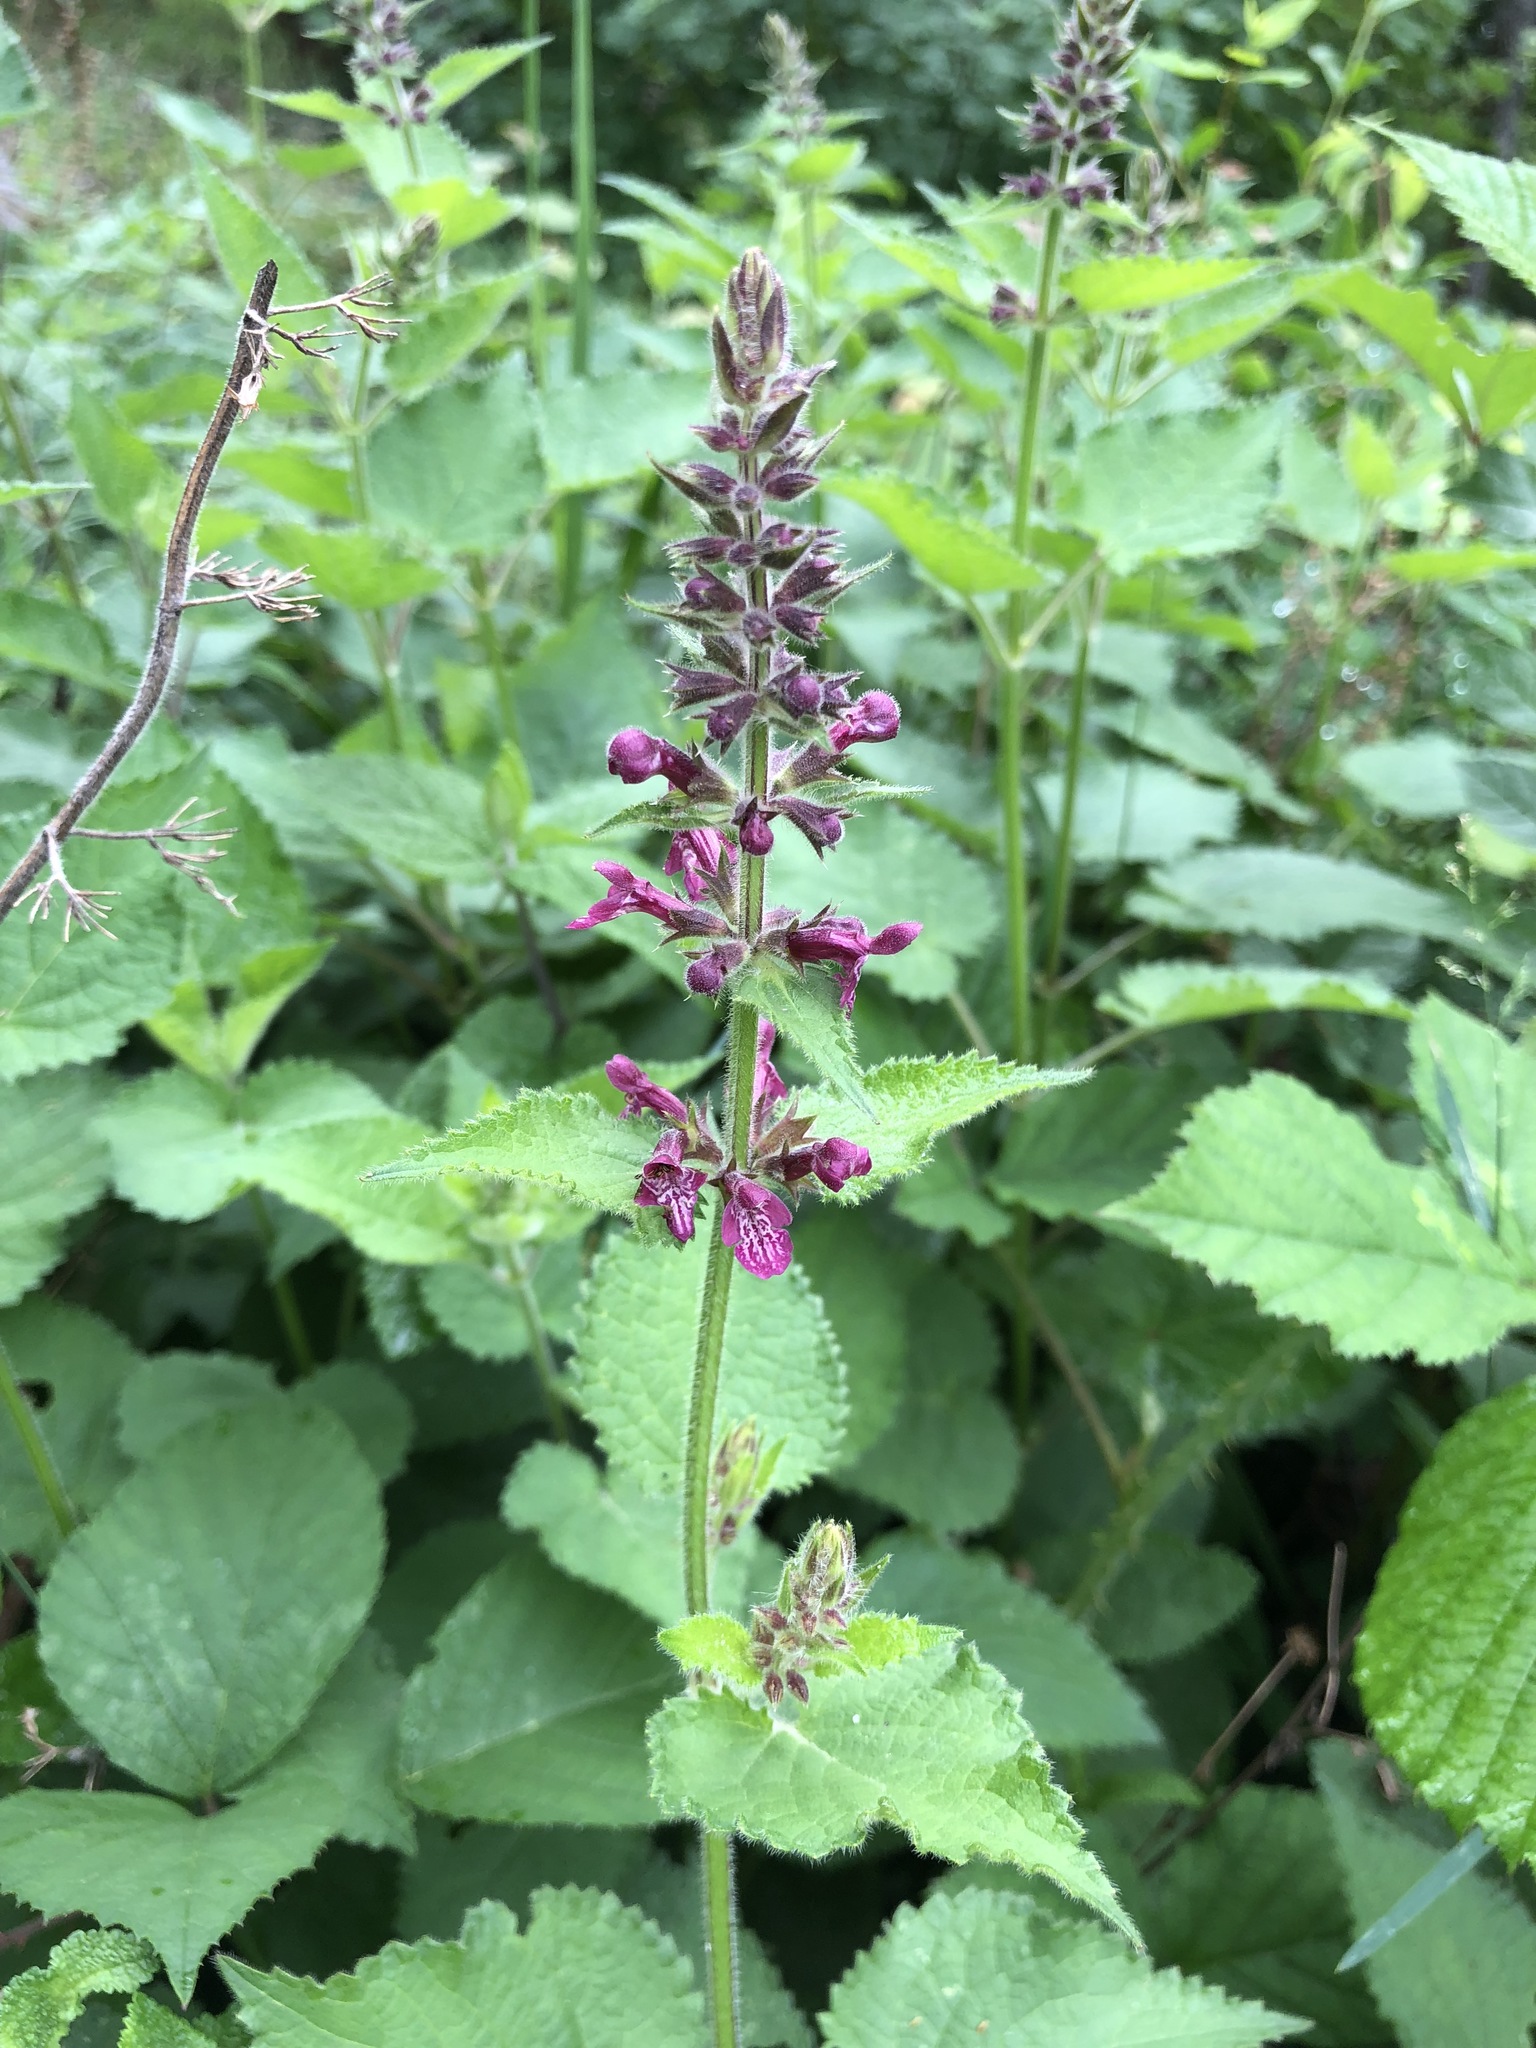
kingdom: Plantae
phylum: Tracheophyta
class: Magnoliopsida
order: Lamiales
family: Lamiaceae
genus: Stachys
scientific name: Stachys sylvatica
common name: Hedge woundwort
